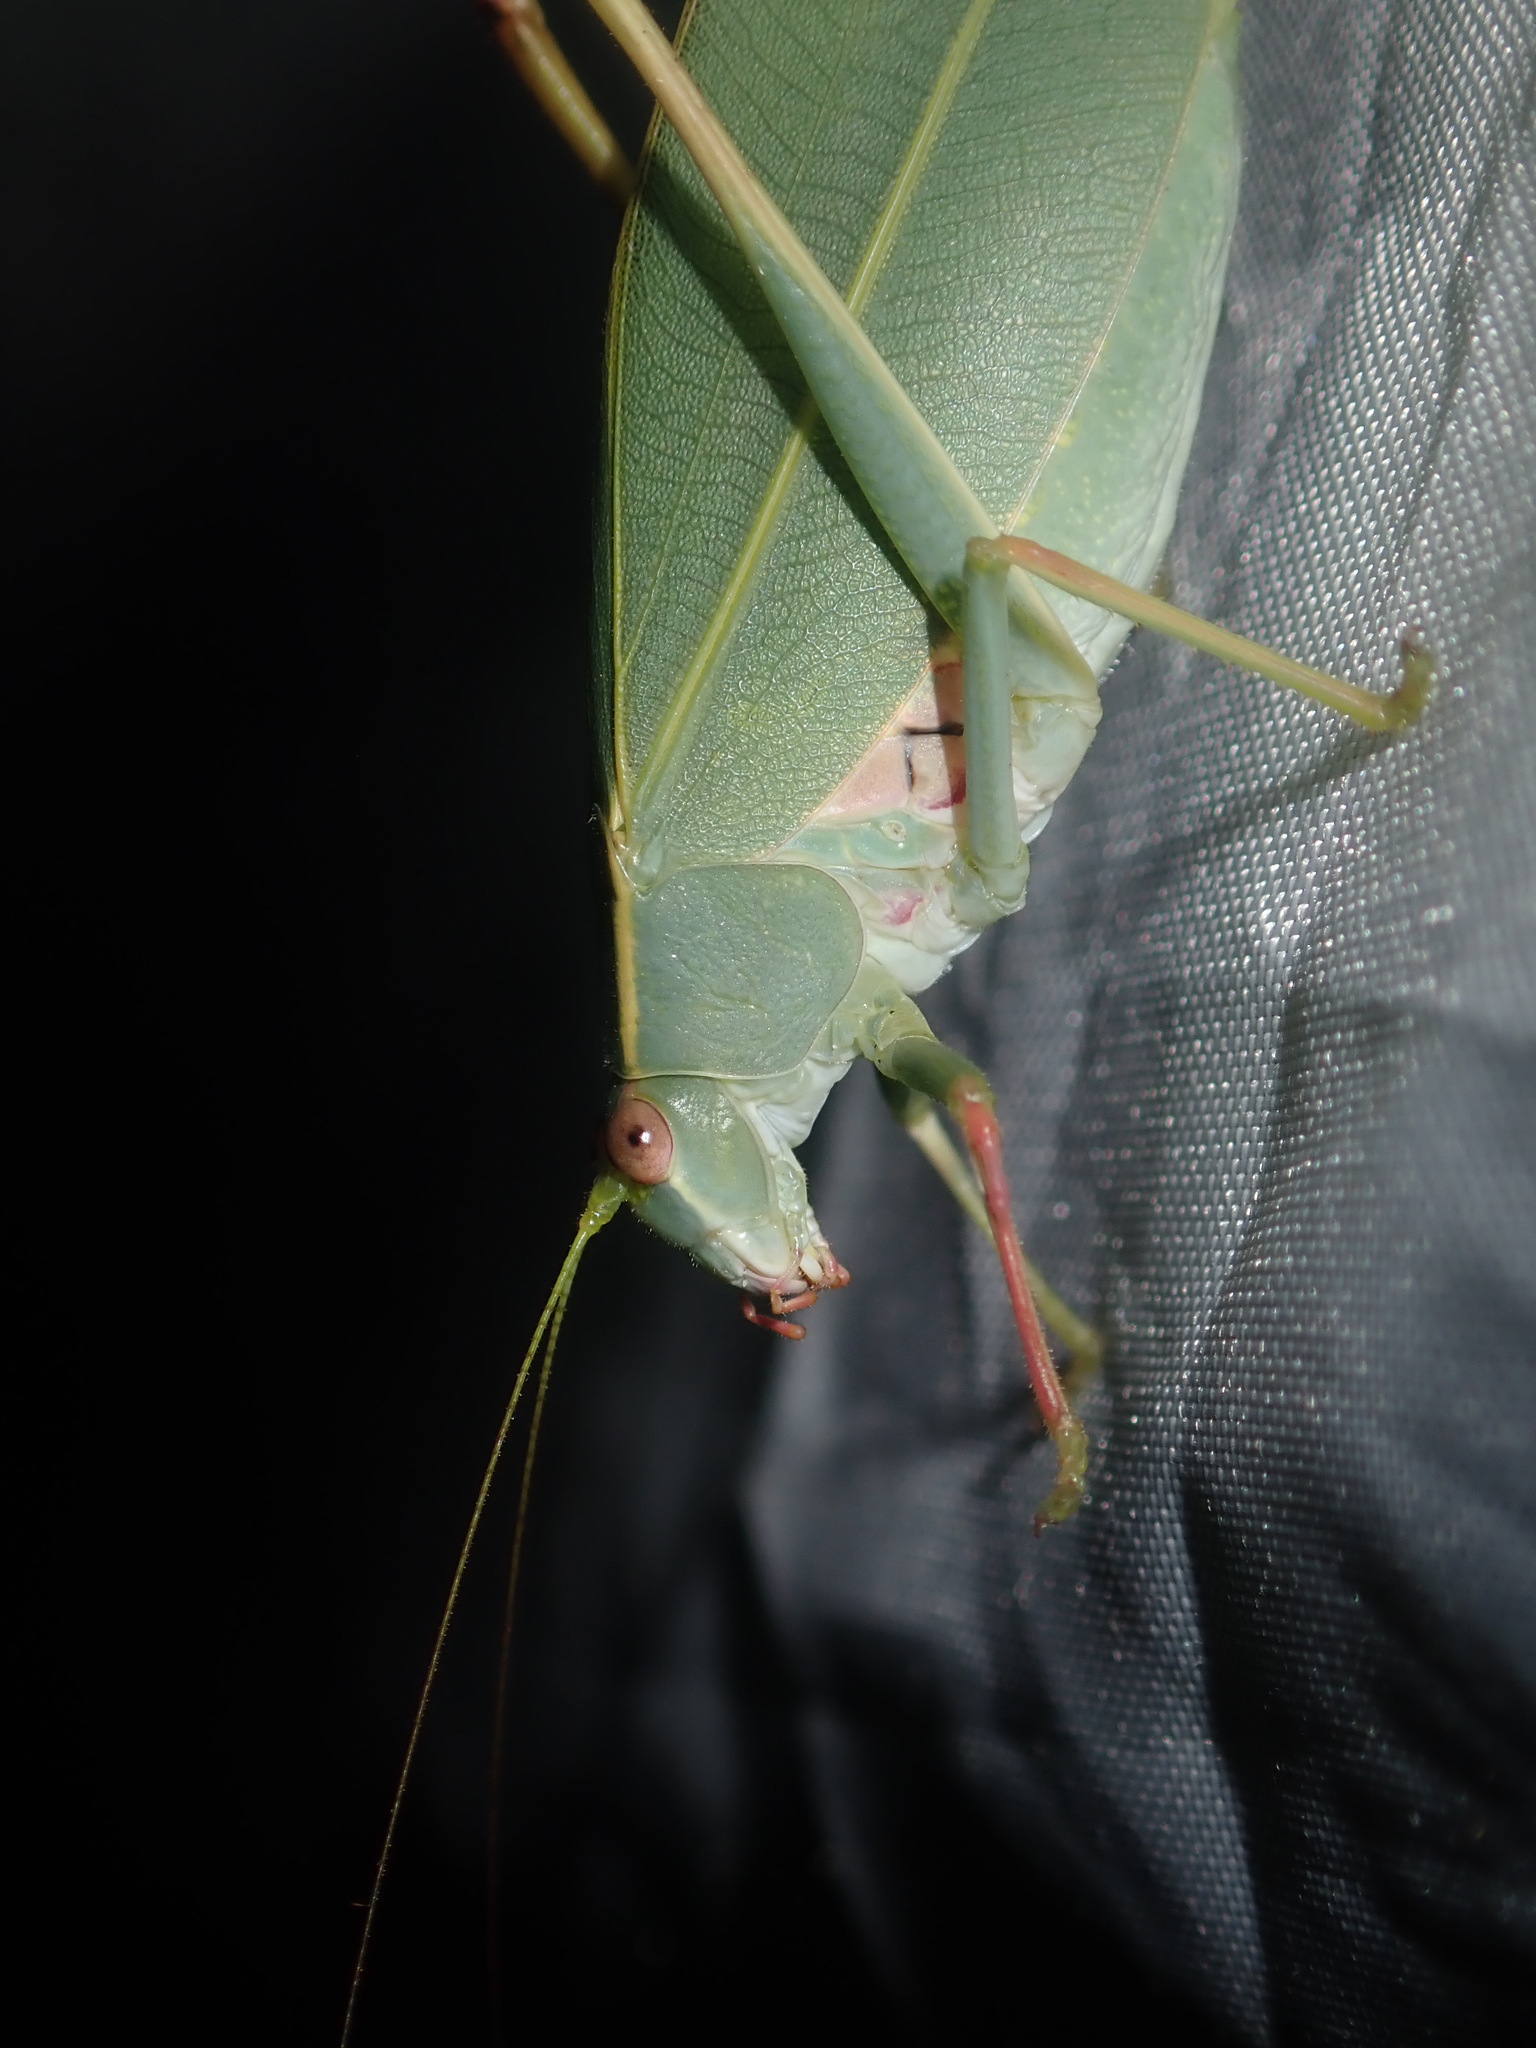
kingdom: Animalia
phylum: Arthropoda
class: Insecta
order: Orthoptera
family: Tettigoniidae
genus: Torbia
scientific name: Torbia viridissima
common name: Non-predaceous gum leaf katydid
